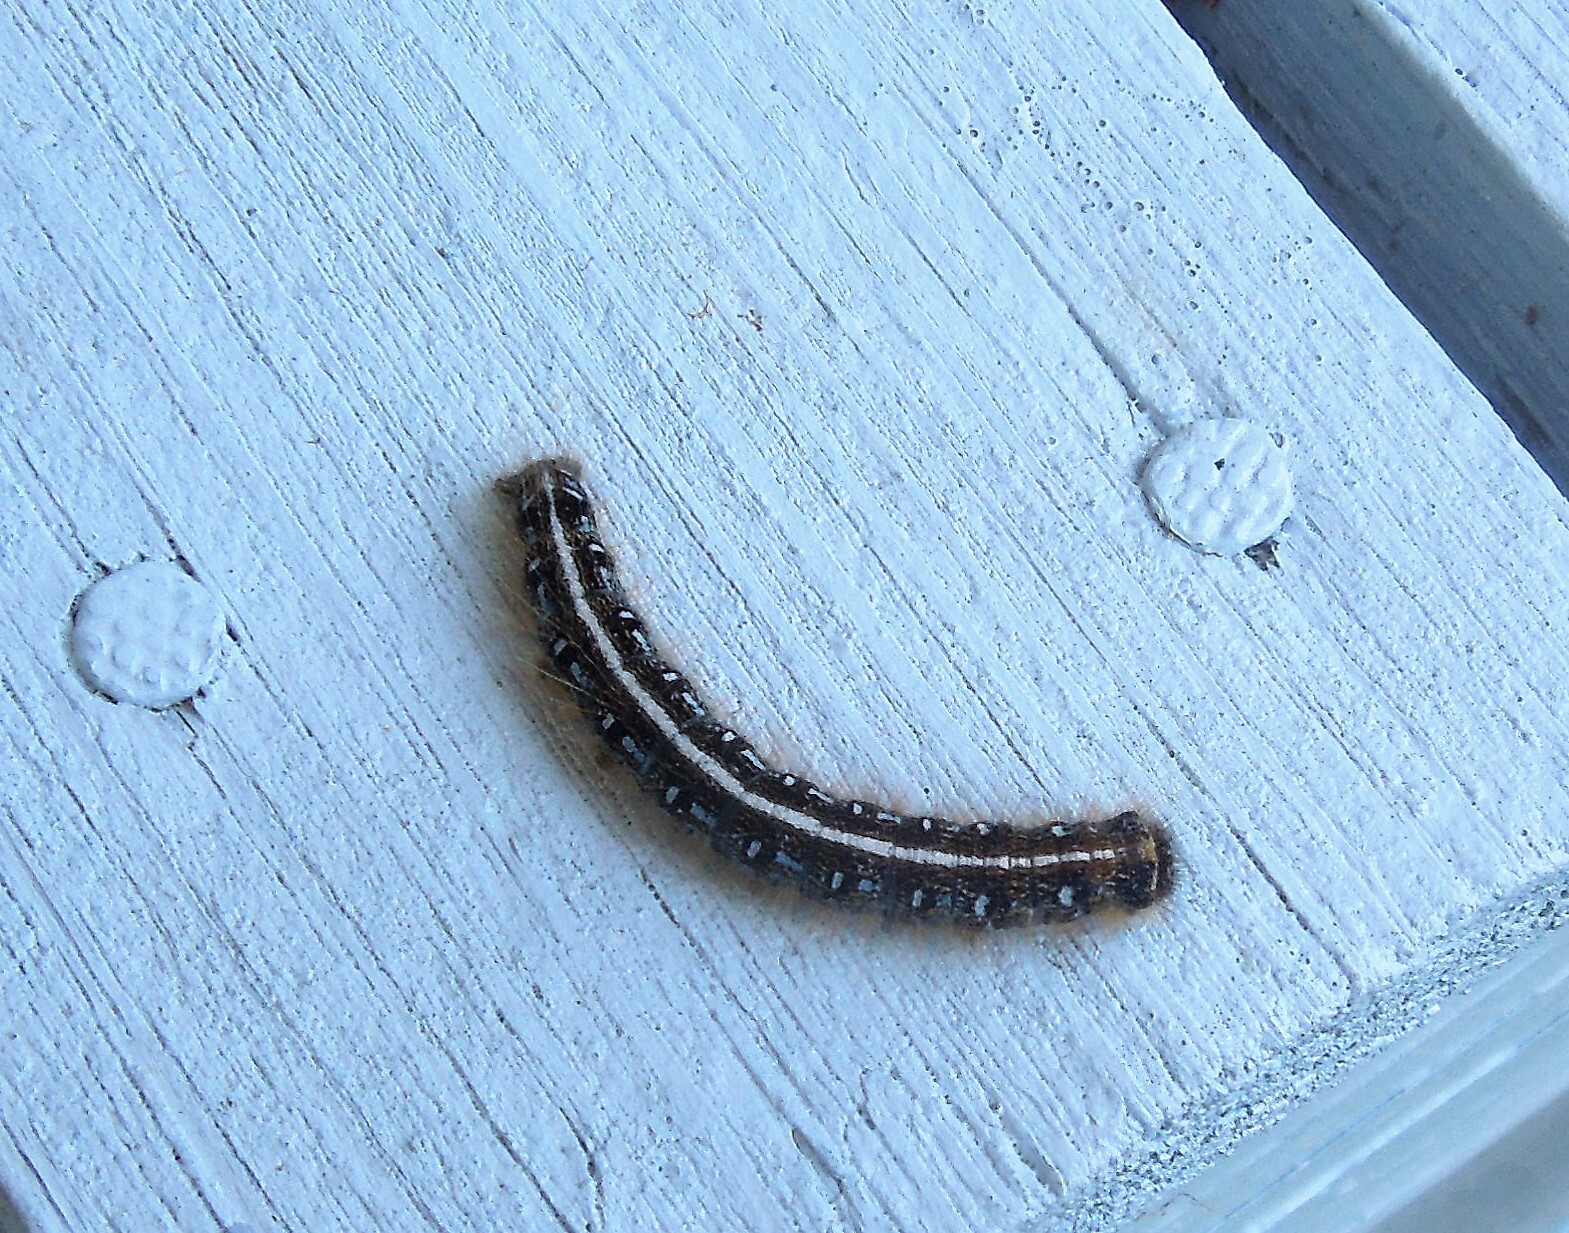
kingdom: Animalia
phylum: Arthropoda
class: Insecta
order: Lepidoptera
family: Lasiocampidae
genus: Malacosoma
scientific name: Malacosoma americana
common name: Eastern tent caterpillar moth
